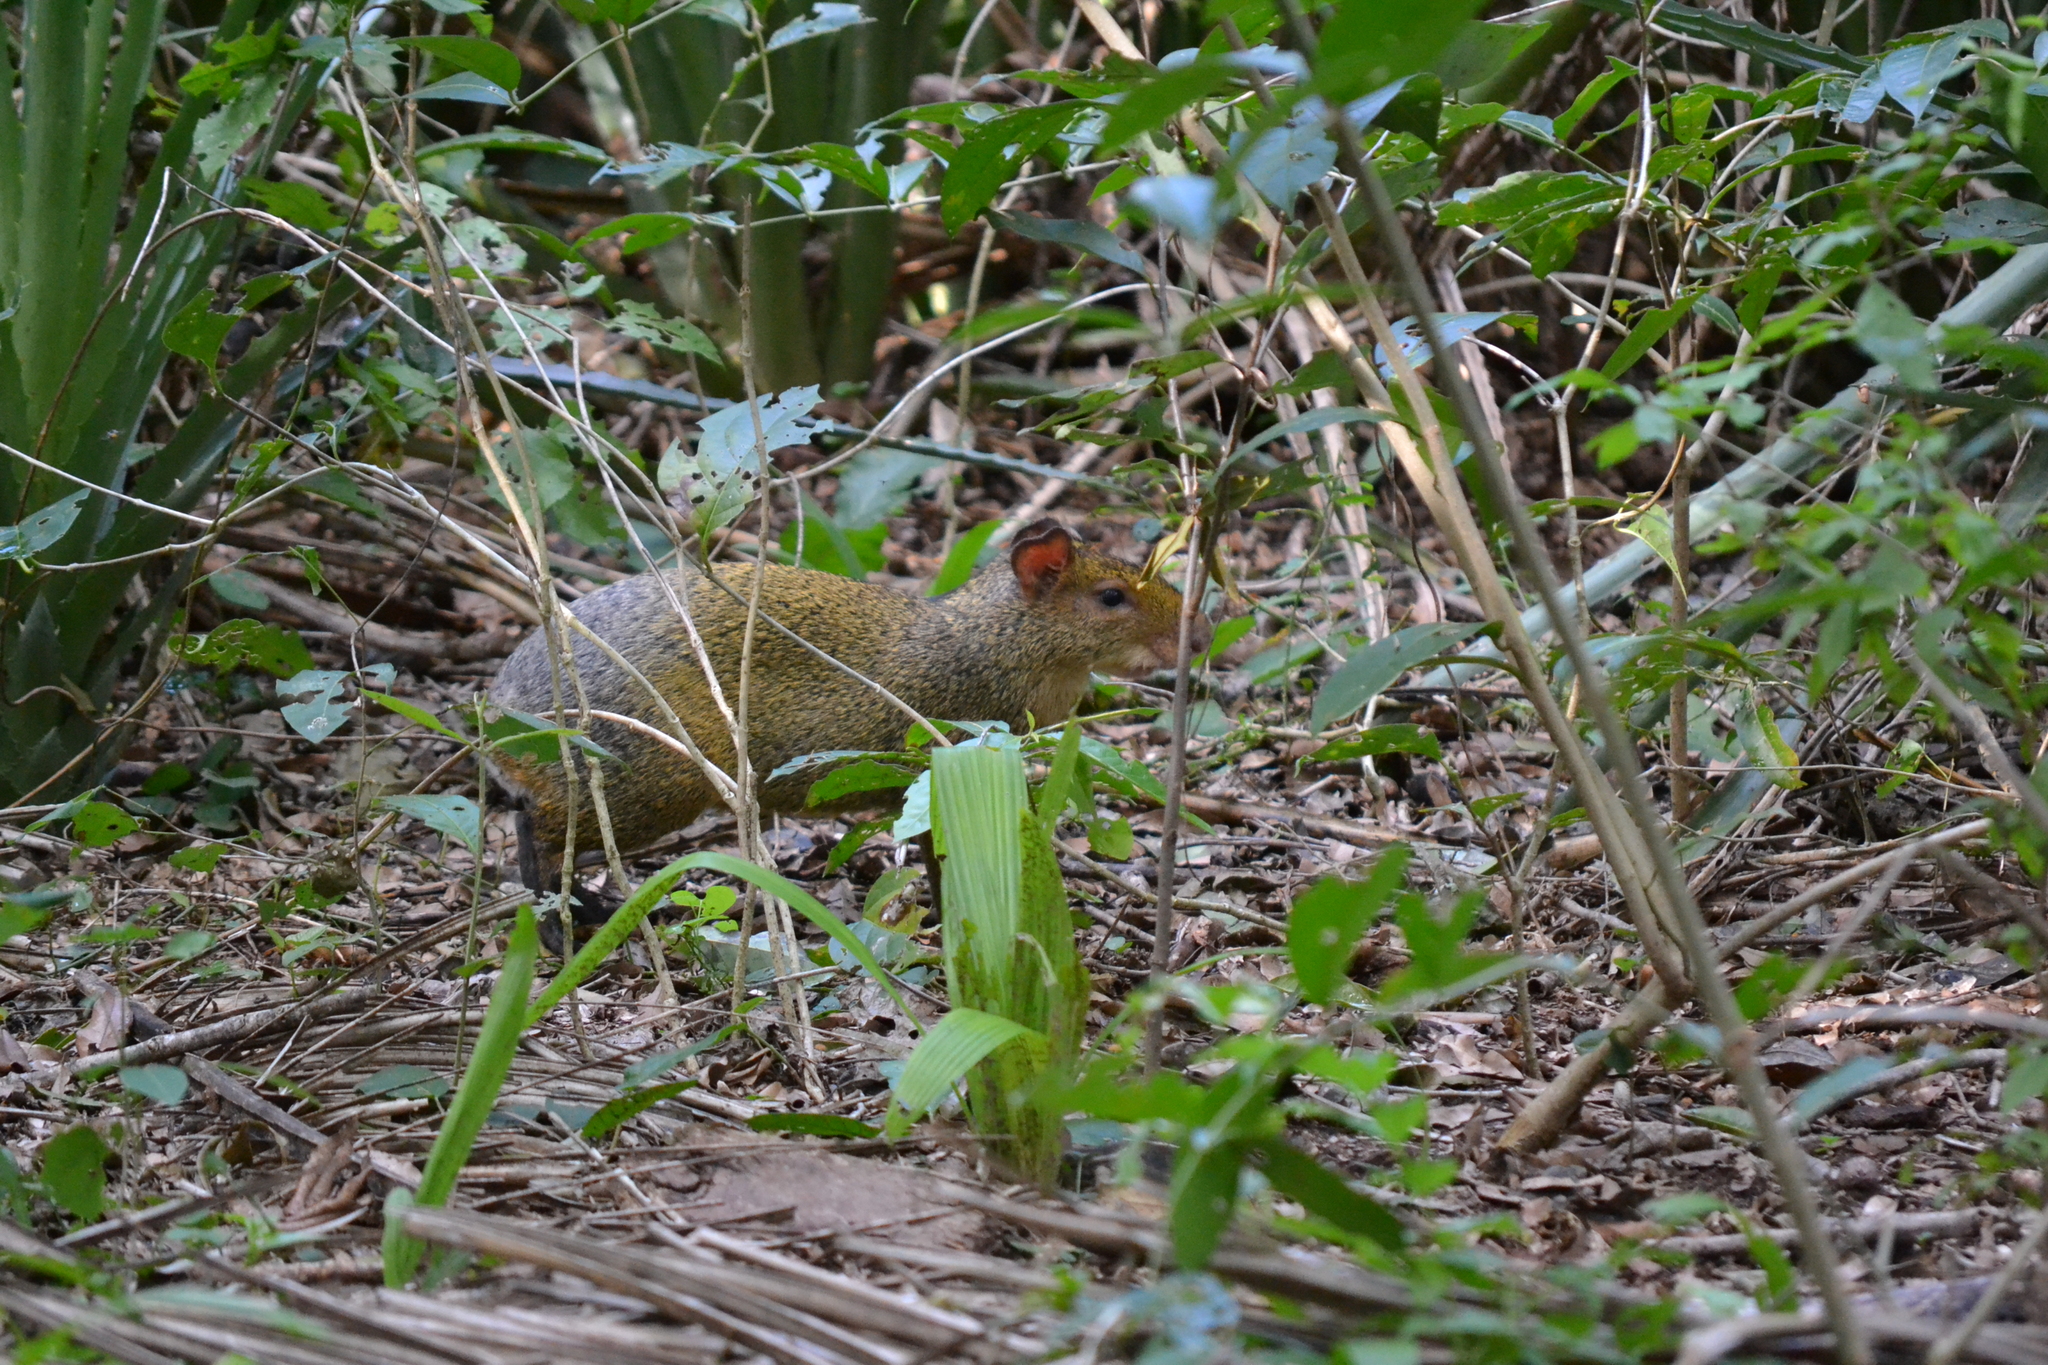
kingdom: Animalia
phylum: Chordata
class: Mammalia
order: Rodentia
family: Dasyproctidae
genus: Dasyprocta
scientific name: Dasyprocta azarae
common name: Azara's agouti
